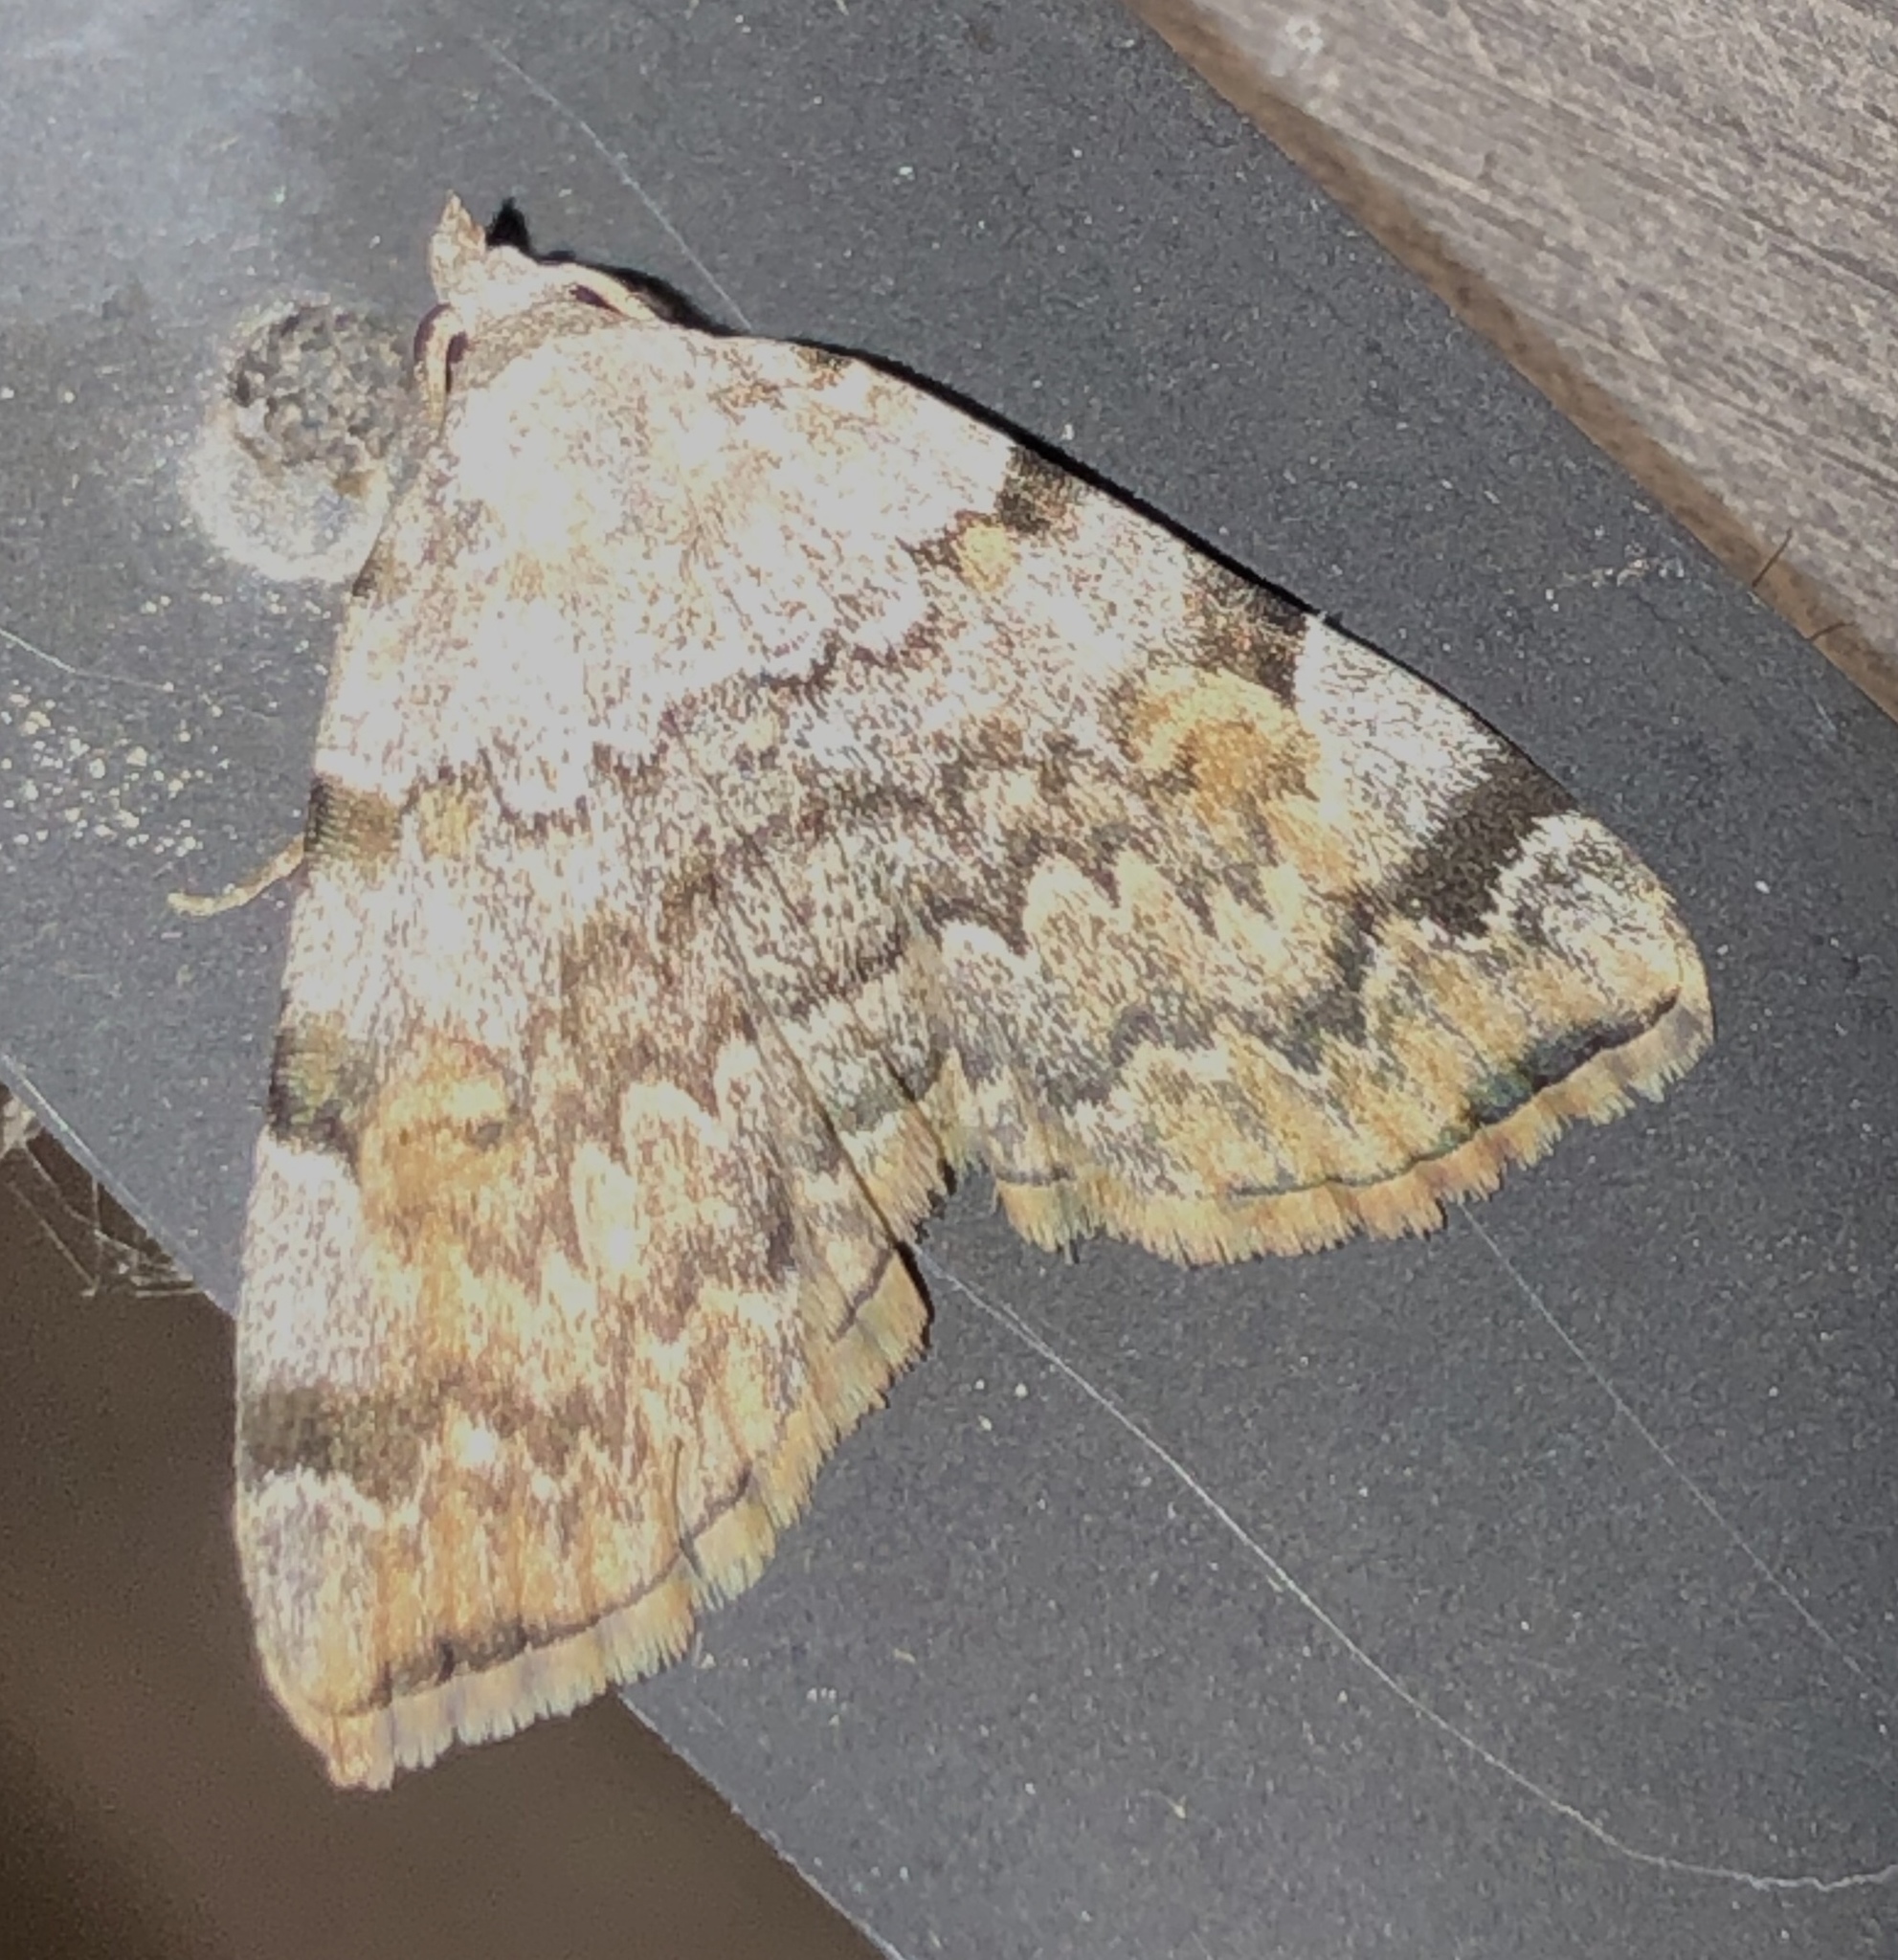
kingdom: Animalia
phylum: Arthropoda
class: Insecta
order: Lepidoptera
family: Erebidae
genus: Idia
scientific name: Idia americalis
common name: American idia moth
